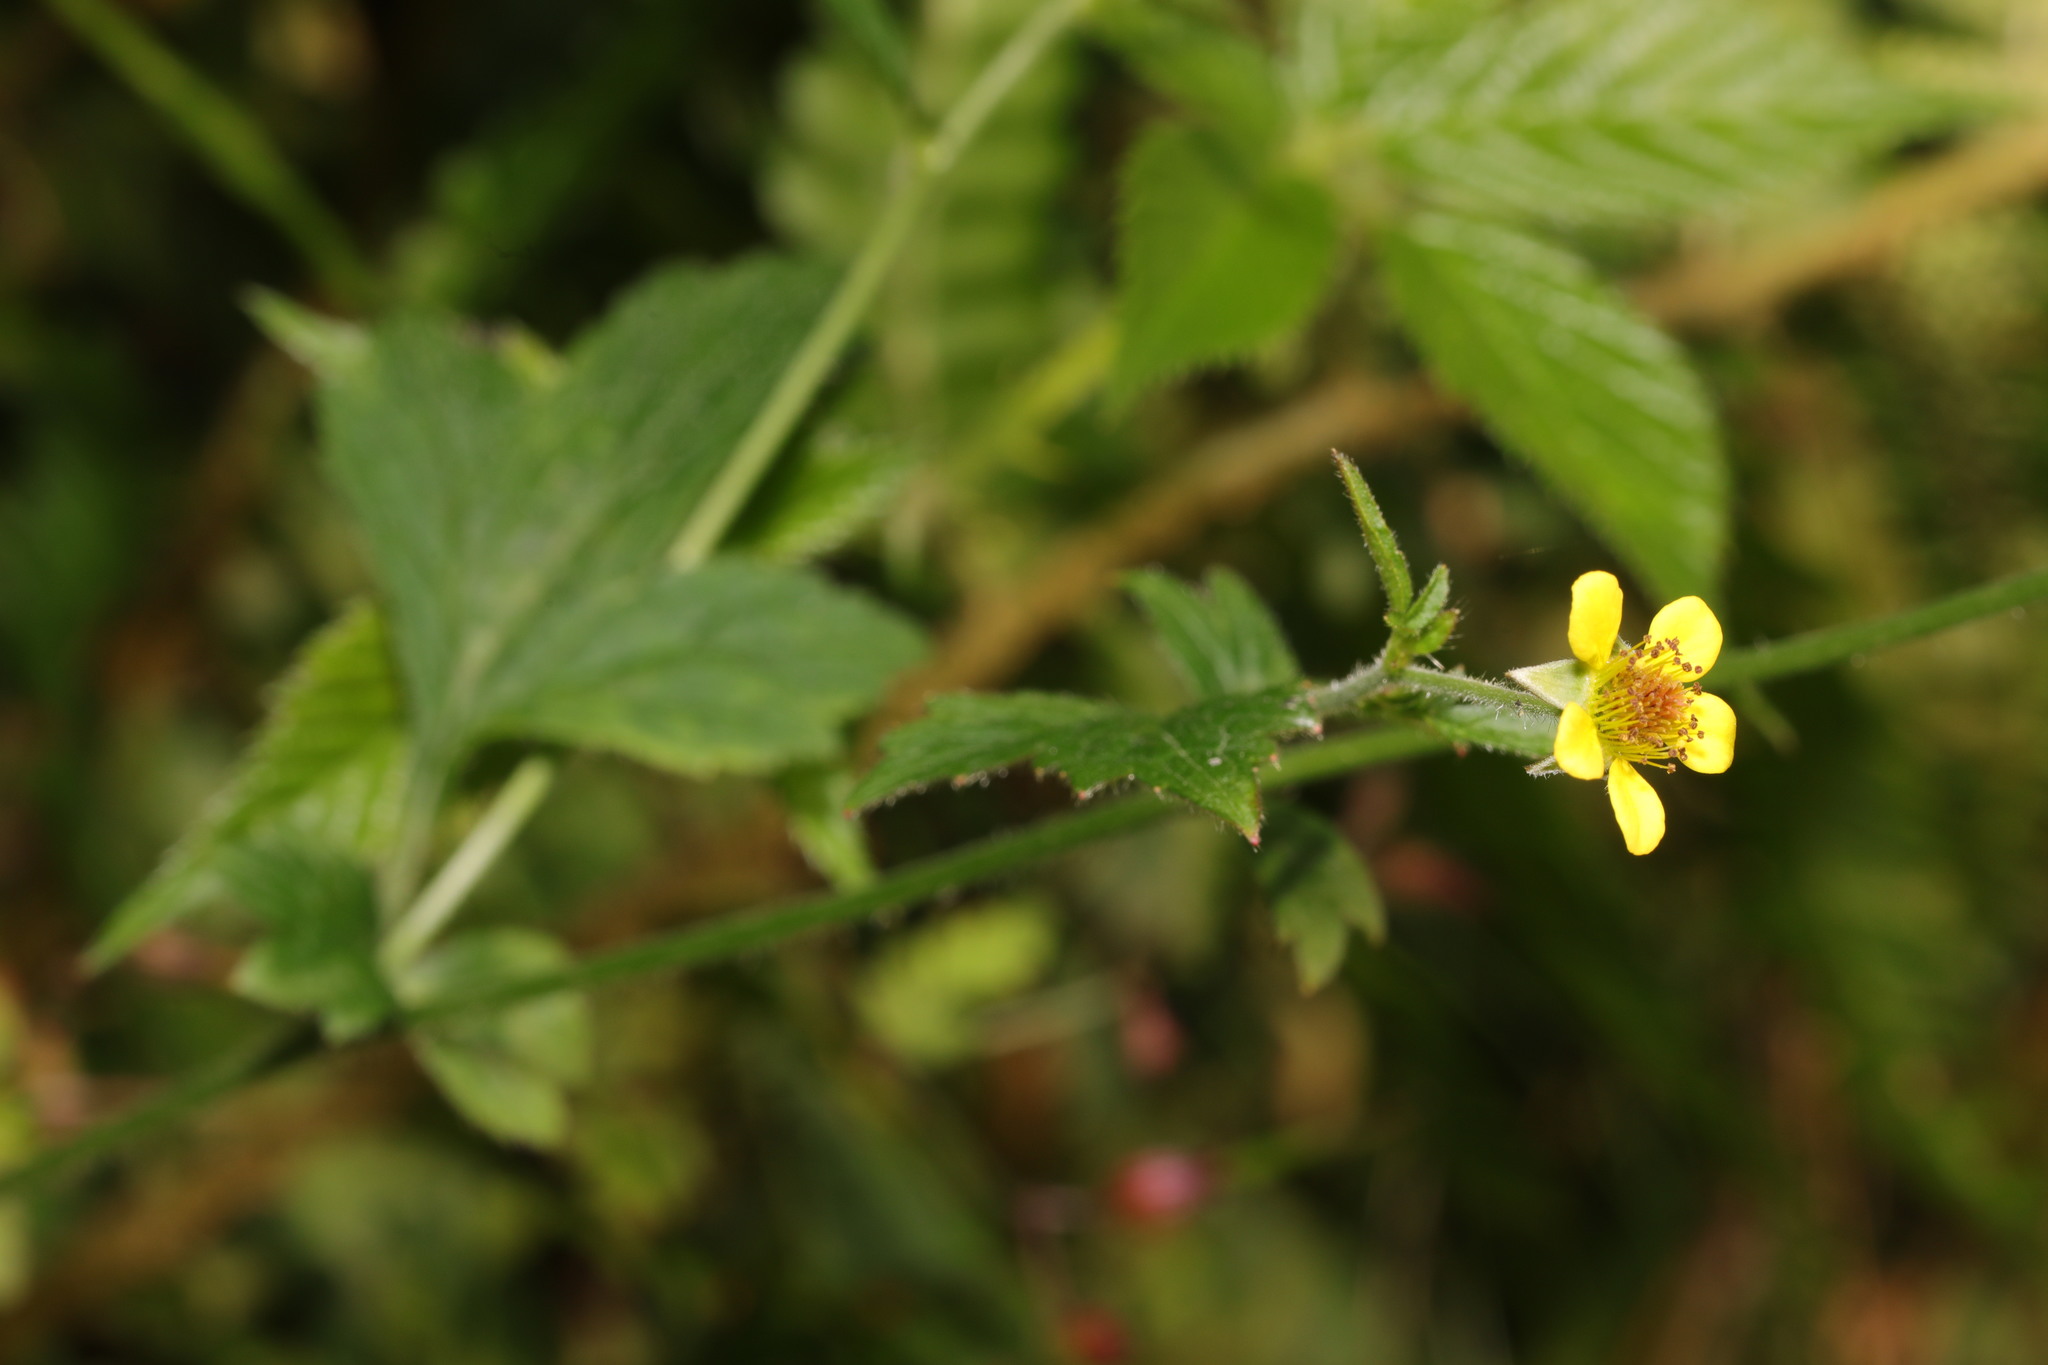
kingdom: Plantae
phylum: Tracheophyta
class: Magnoliopsida
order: Rosales
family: Rosaceae
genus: Geum
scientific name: Geum urbanum
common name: Wood avens
